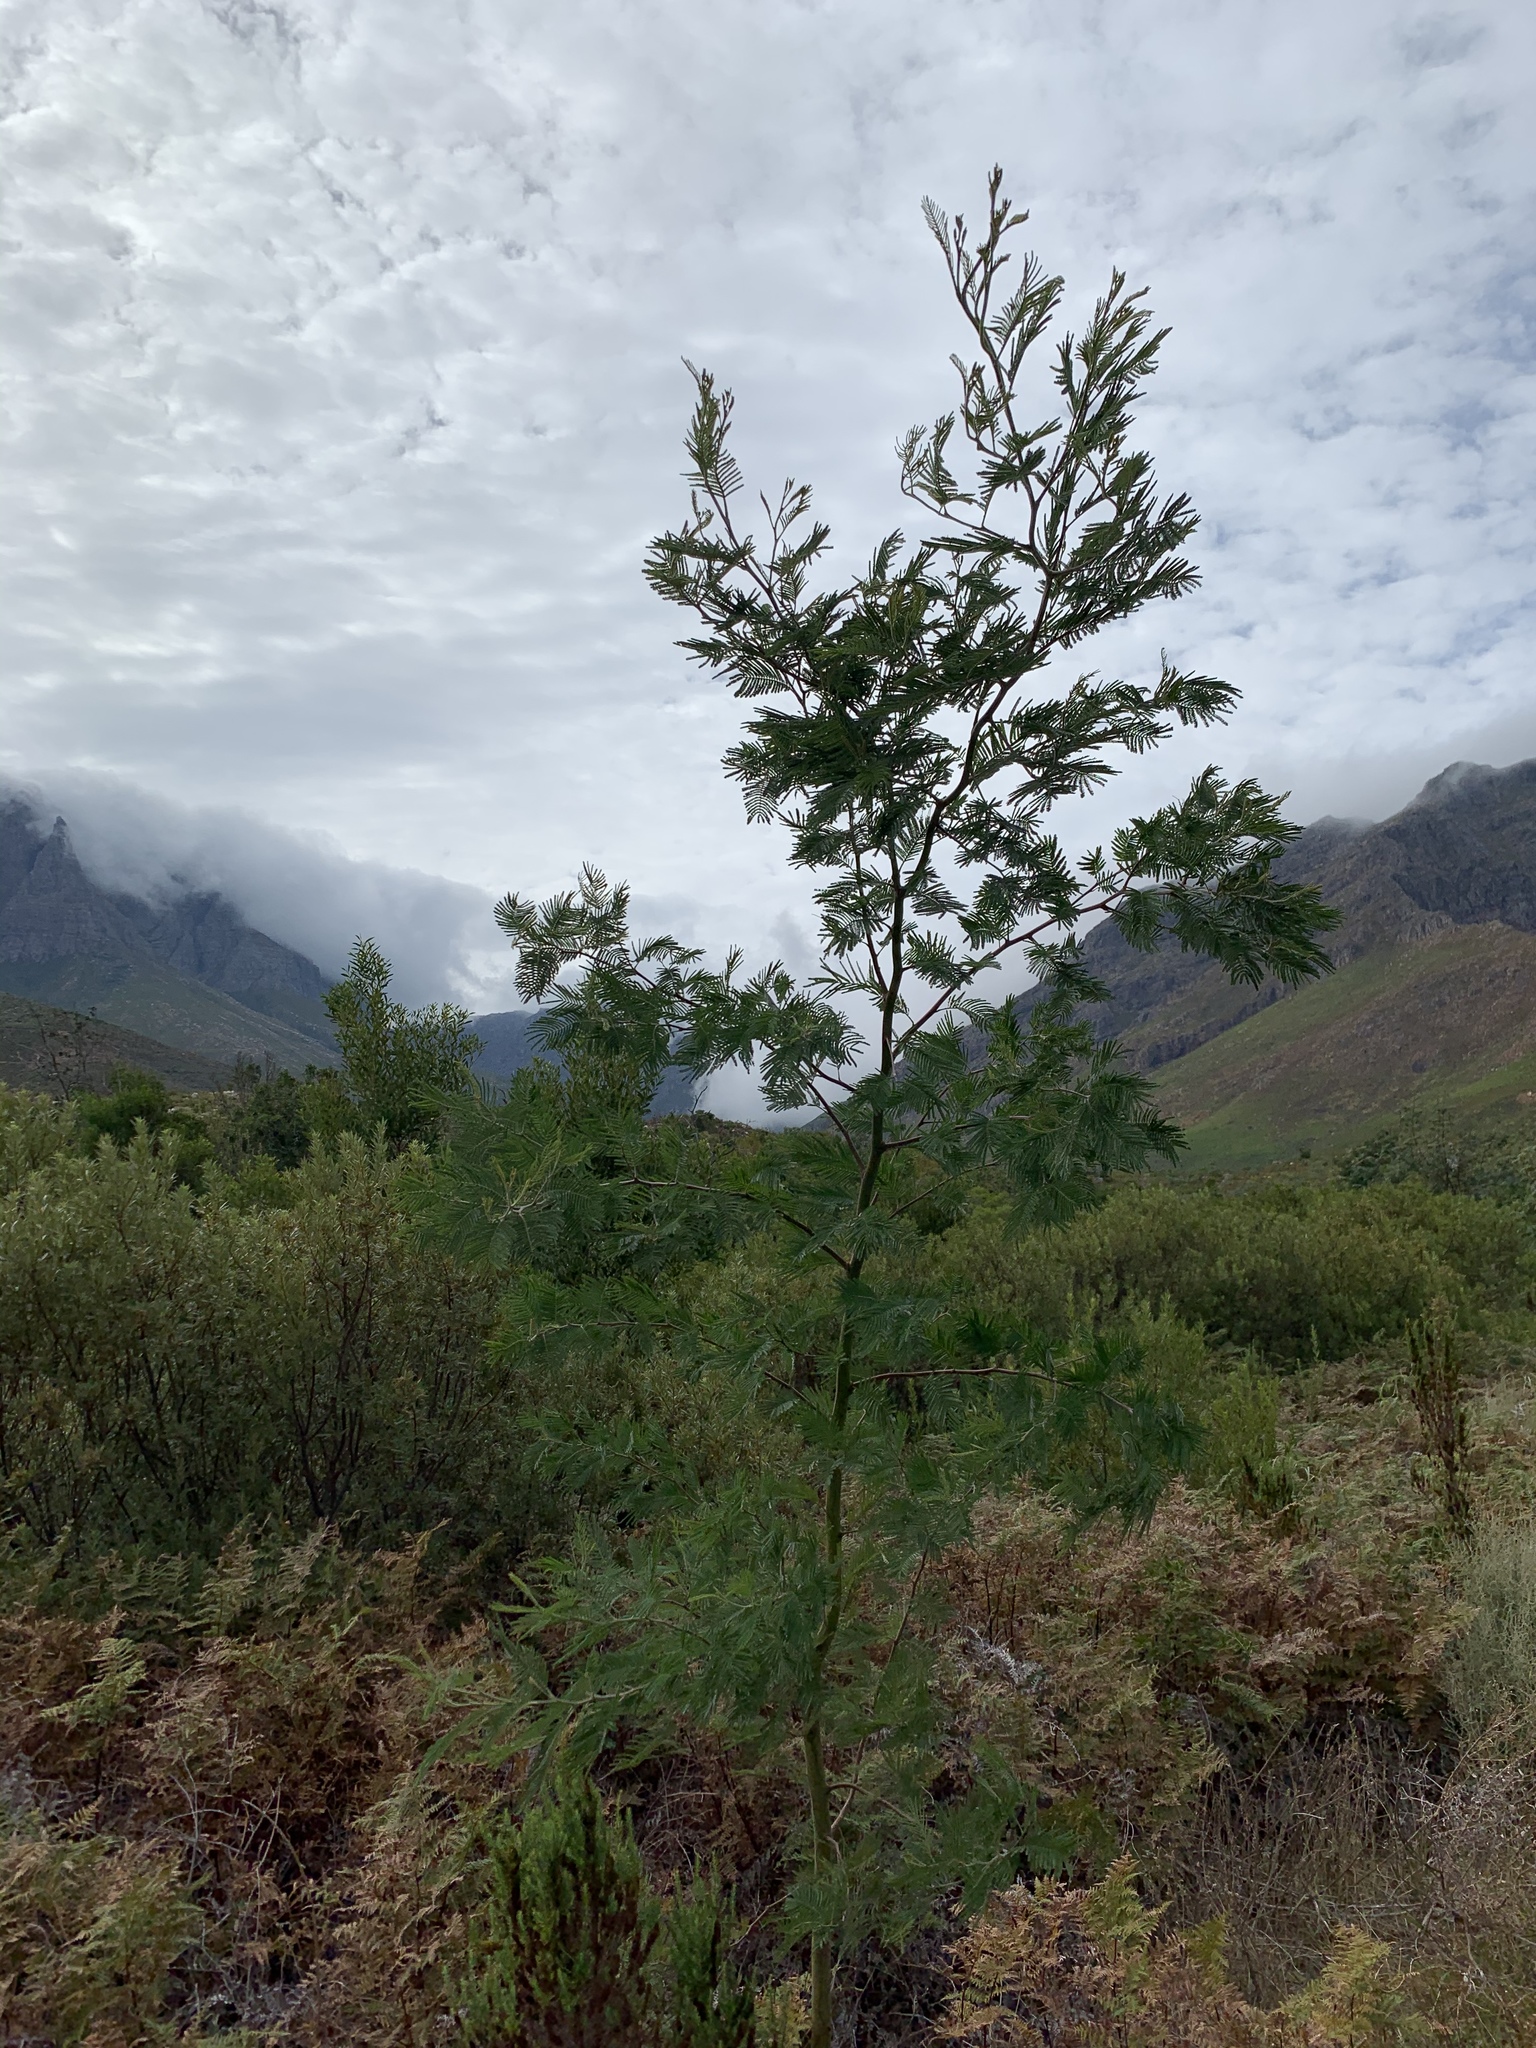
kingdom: Plantae
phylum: Tracheophyta
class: Magnoliopsida
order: Fabales
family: Fabaceae
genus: Acacia
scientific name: Acacia mearnsii
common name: Black wattle
